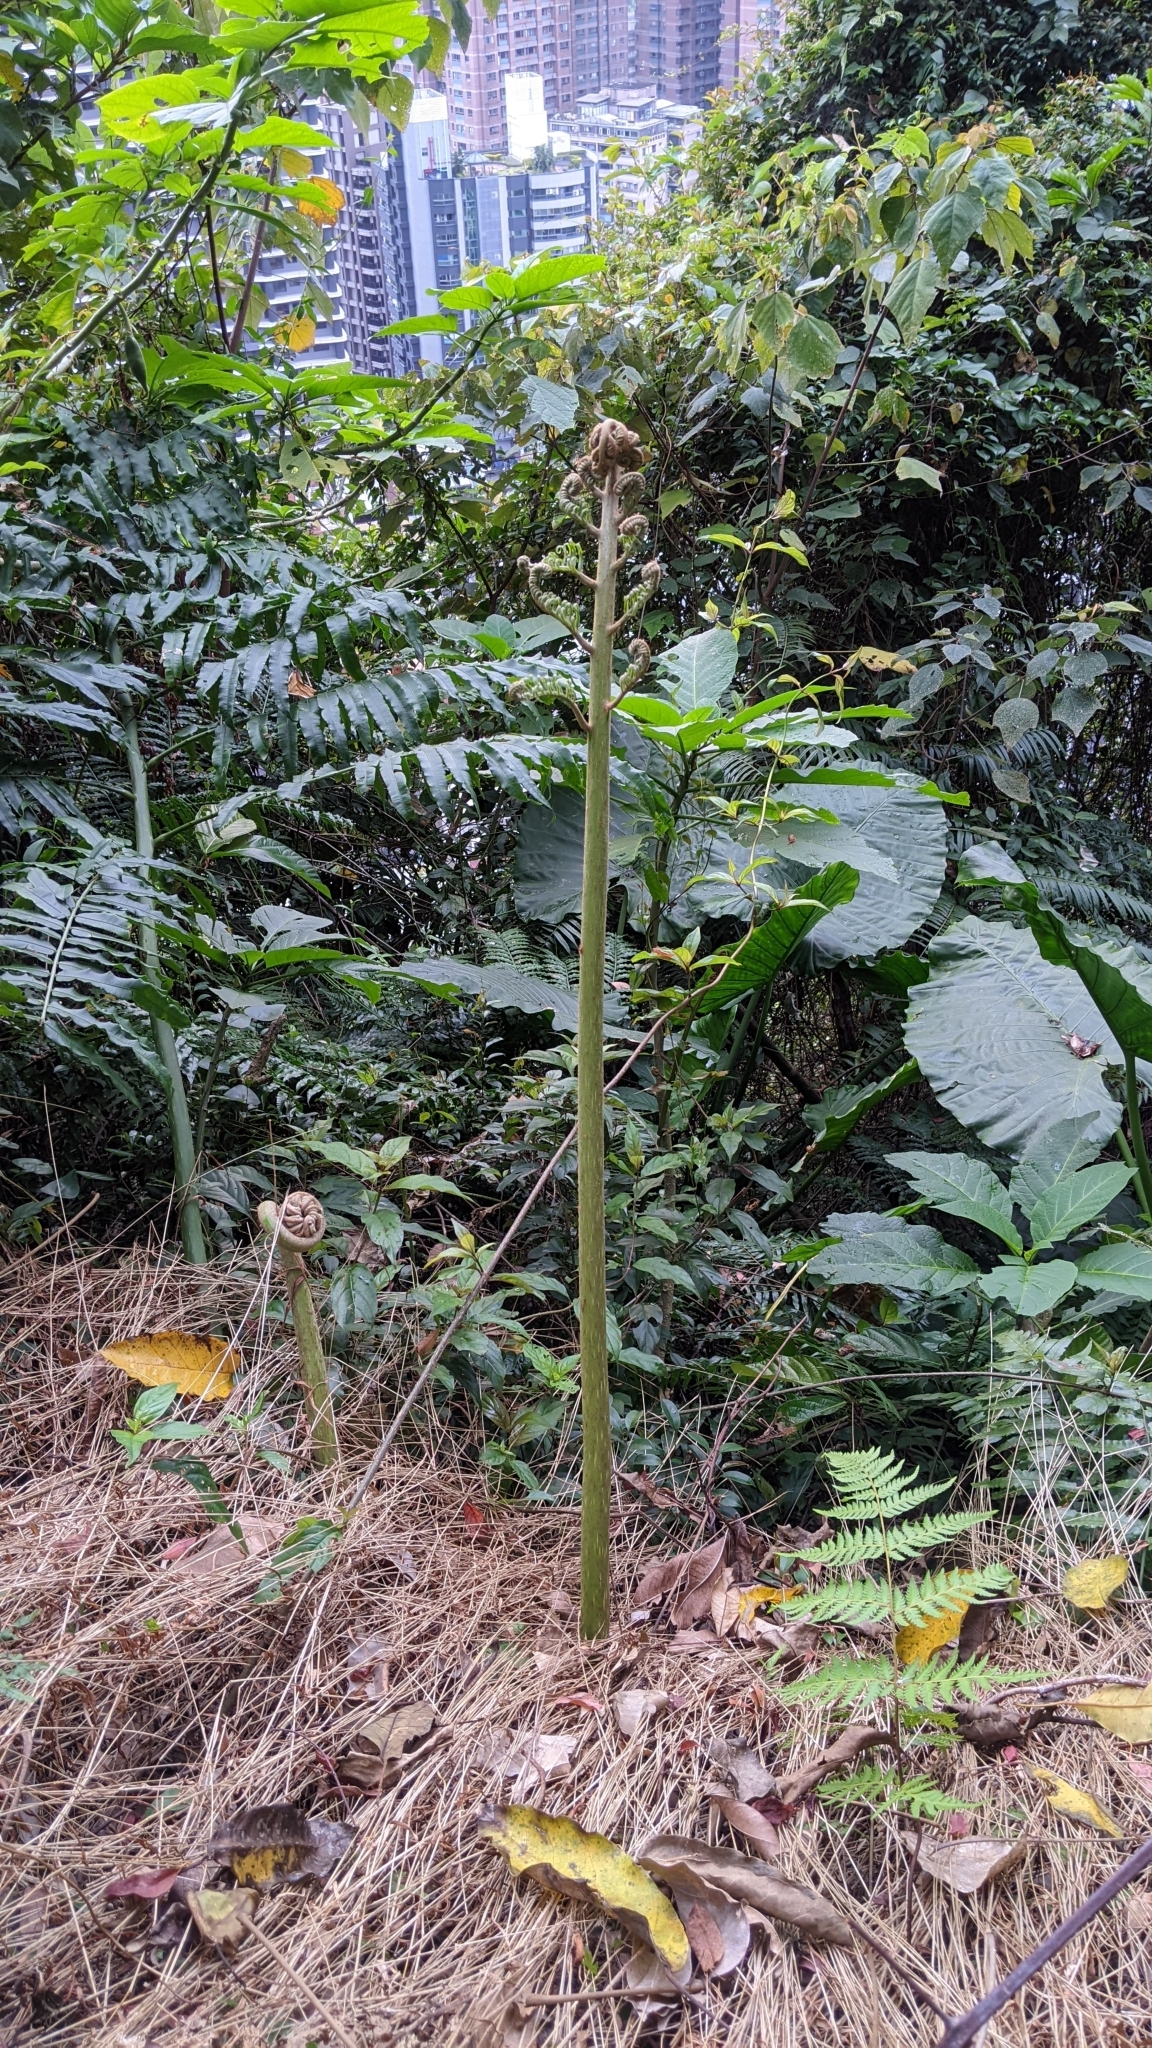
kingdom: Plantae
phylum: Tracheophyta
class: Polypodiopsida
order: Marattiales
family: Marattiaceae
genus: Angiopteris
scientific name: Angiopteris lygodiifolia
